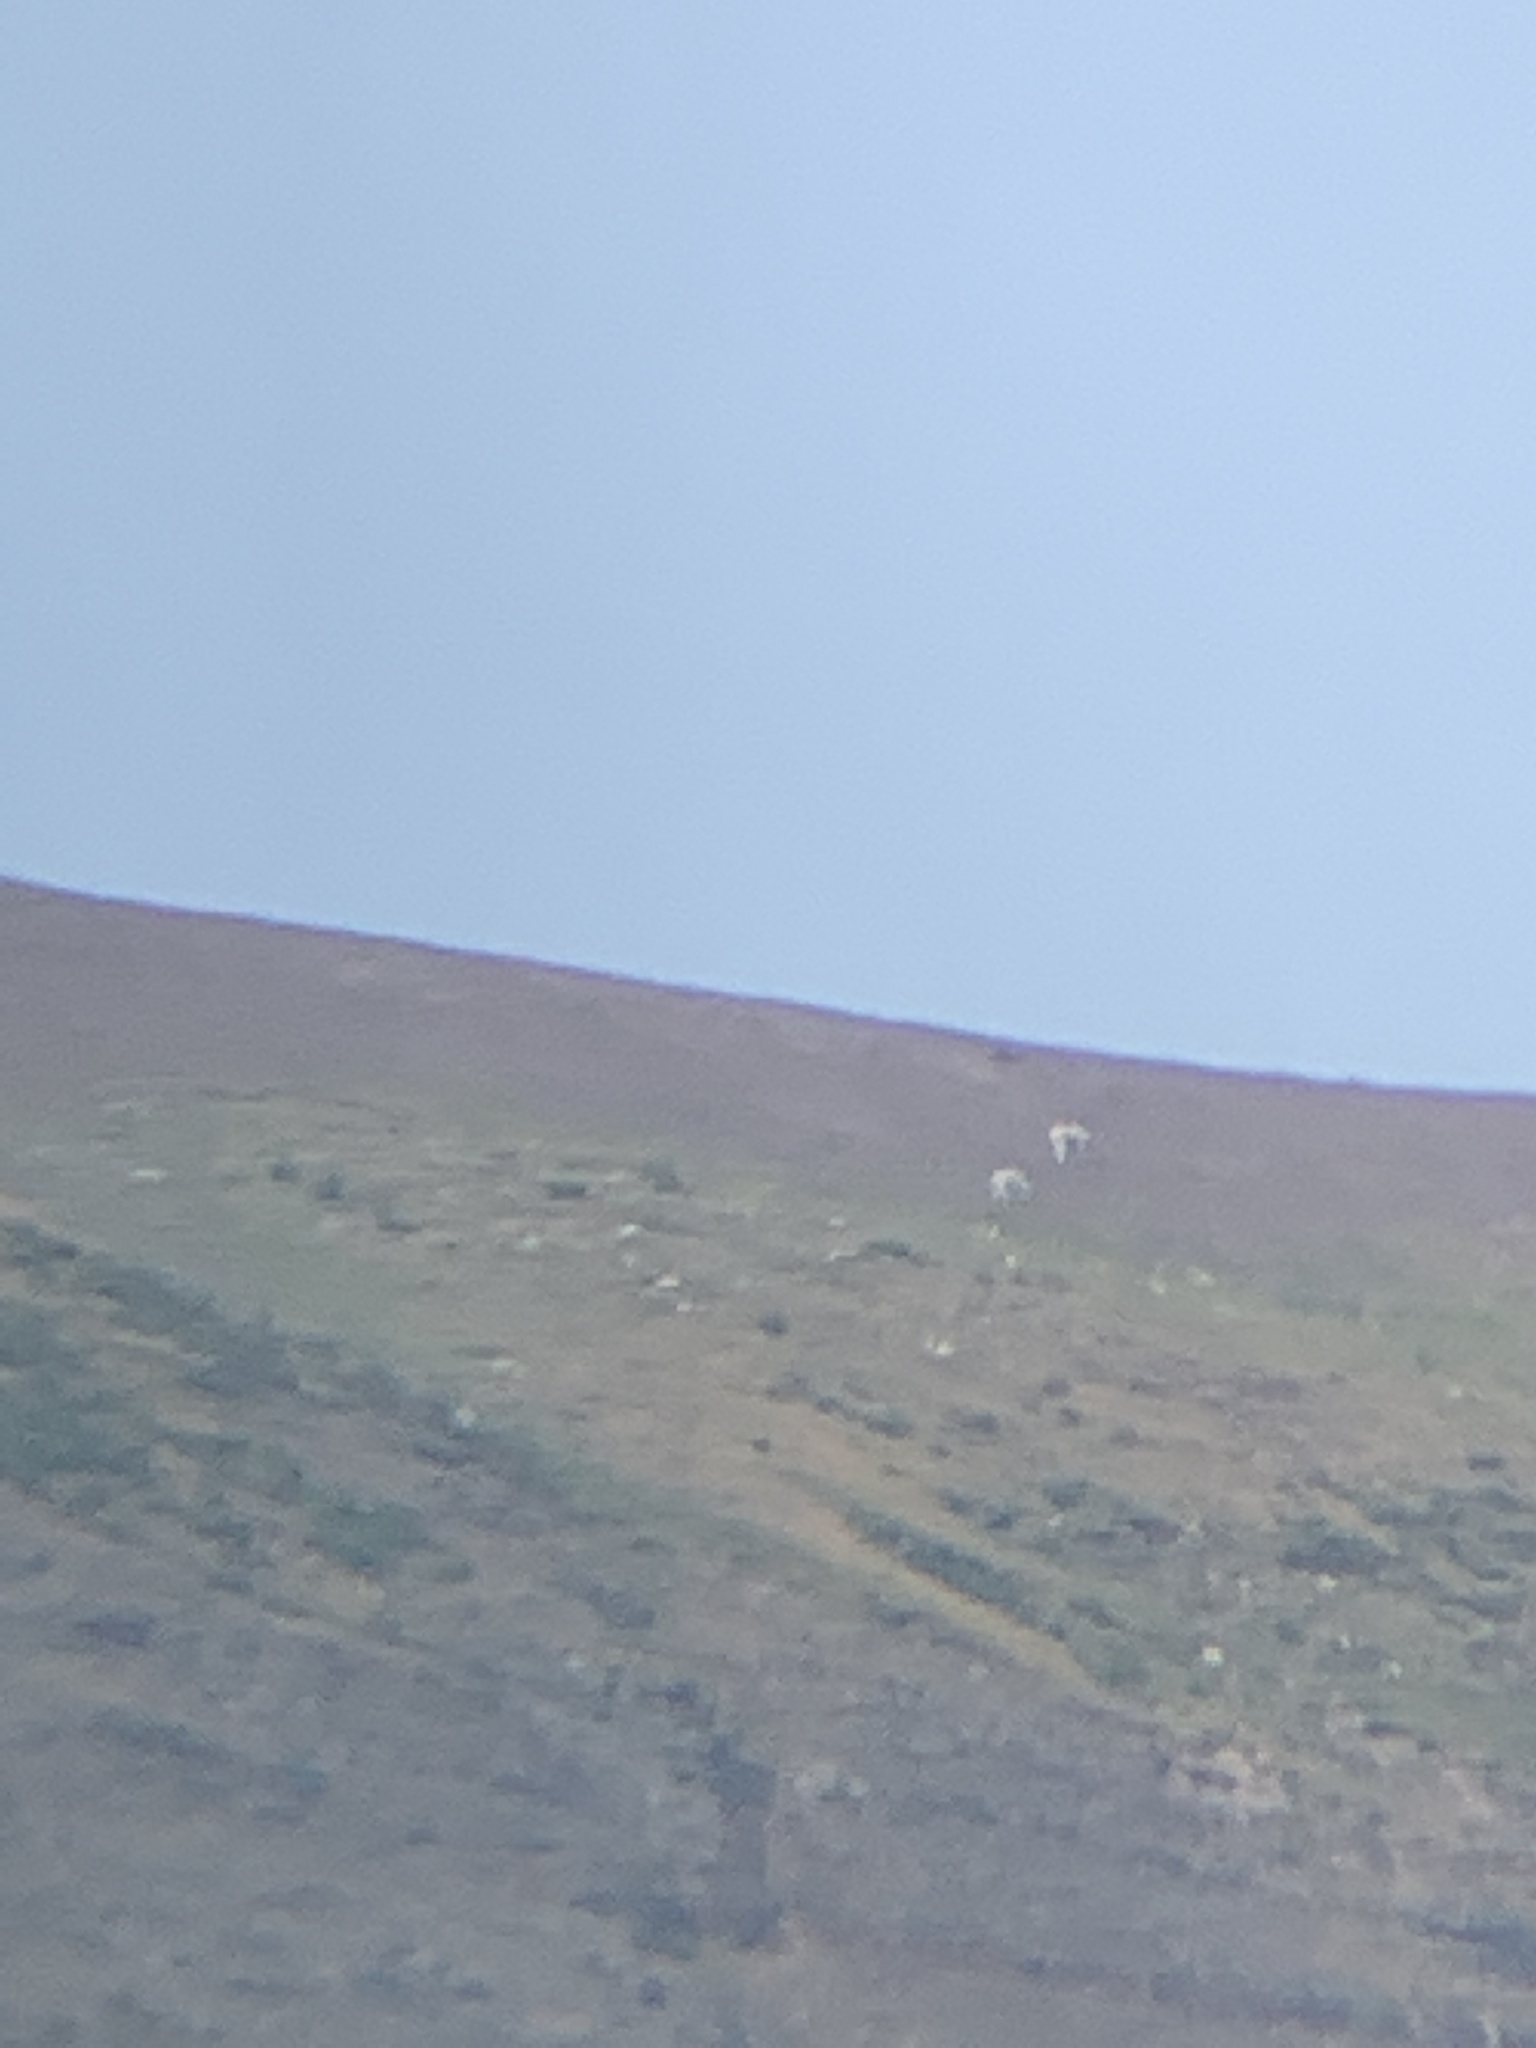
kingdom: Animalia
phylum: Chordata
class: Mammalia
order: Artiodactyla
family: Bovidae
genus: Oreamnos
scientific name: Oreamnos americanus
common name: Mountain goat
